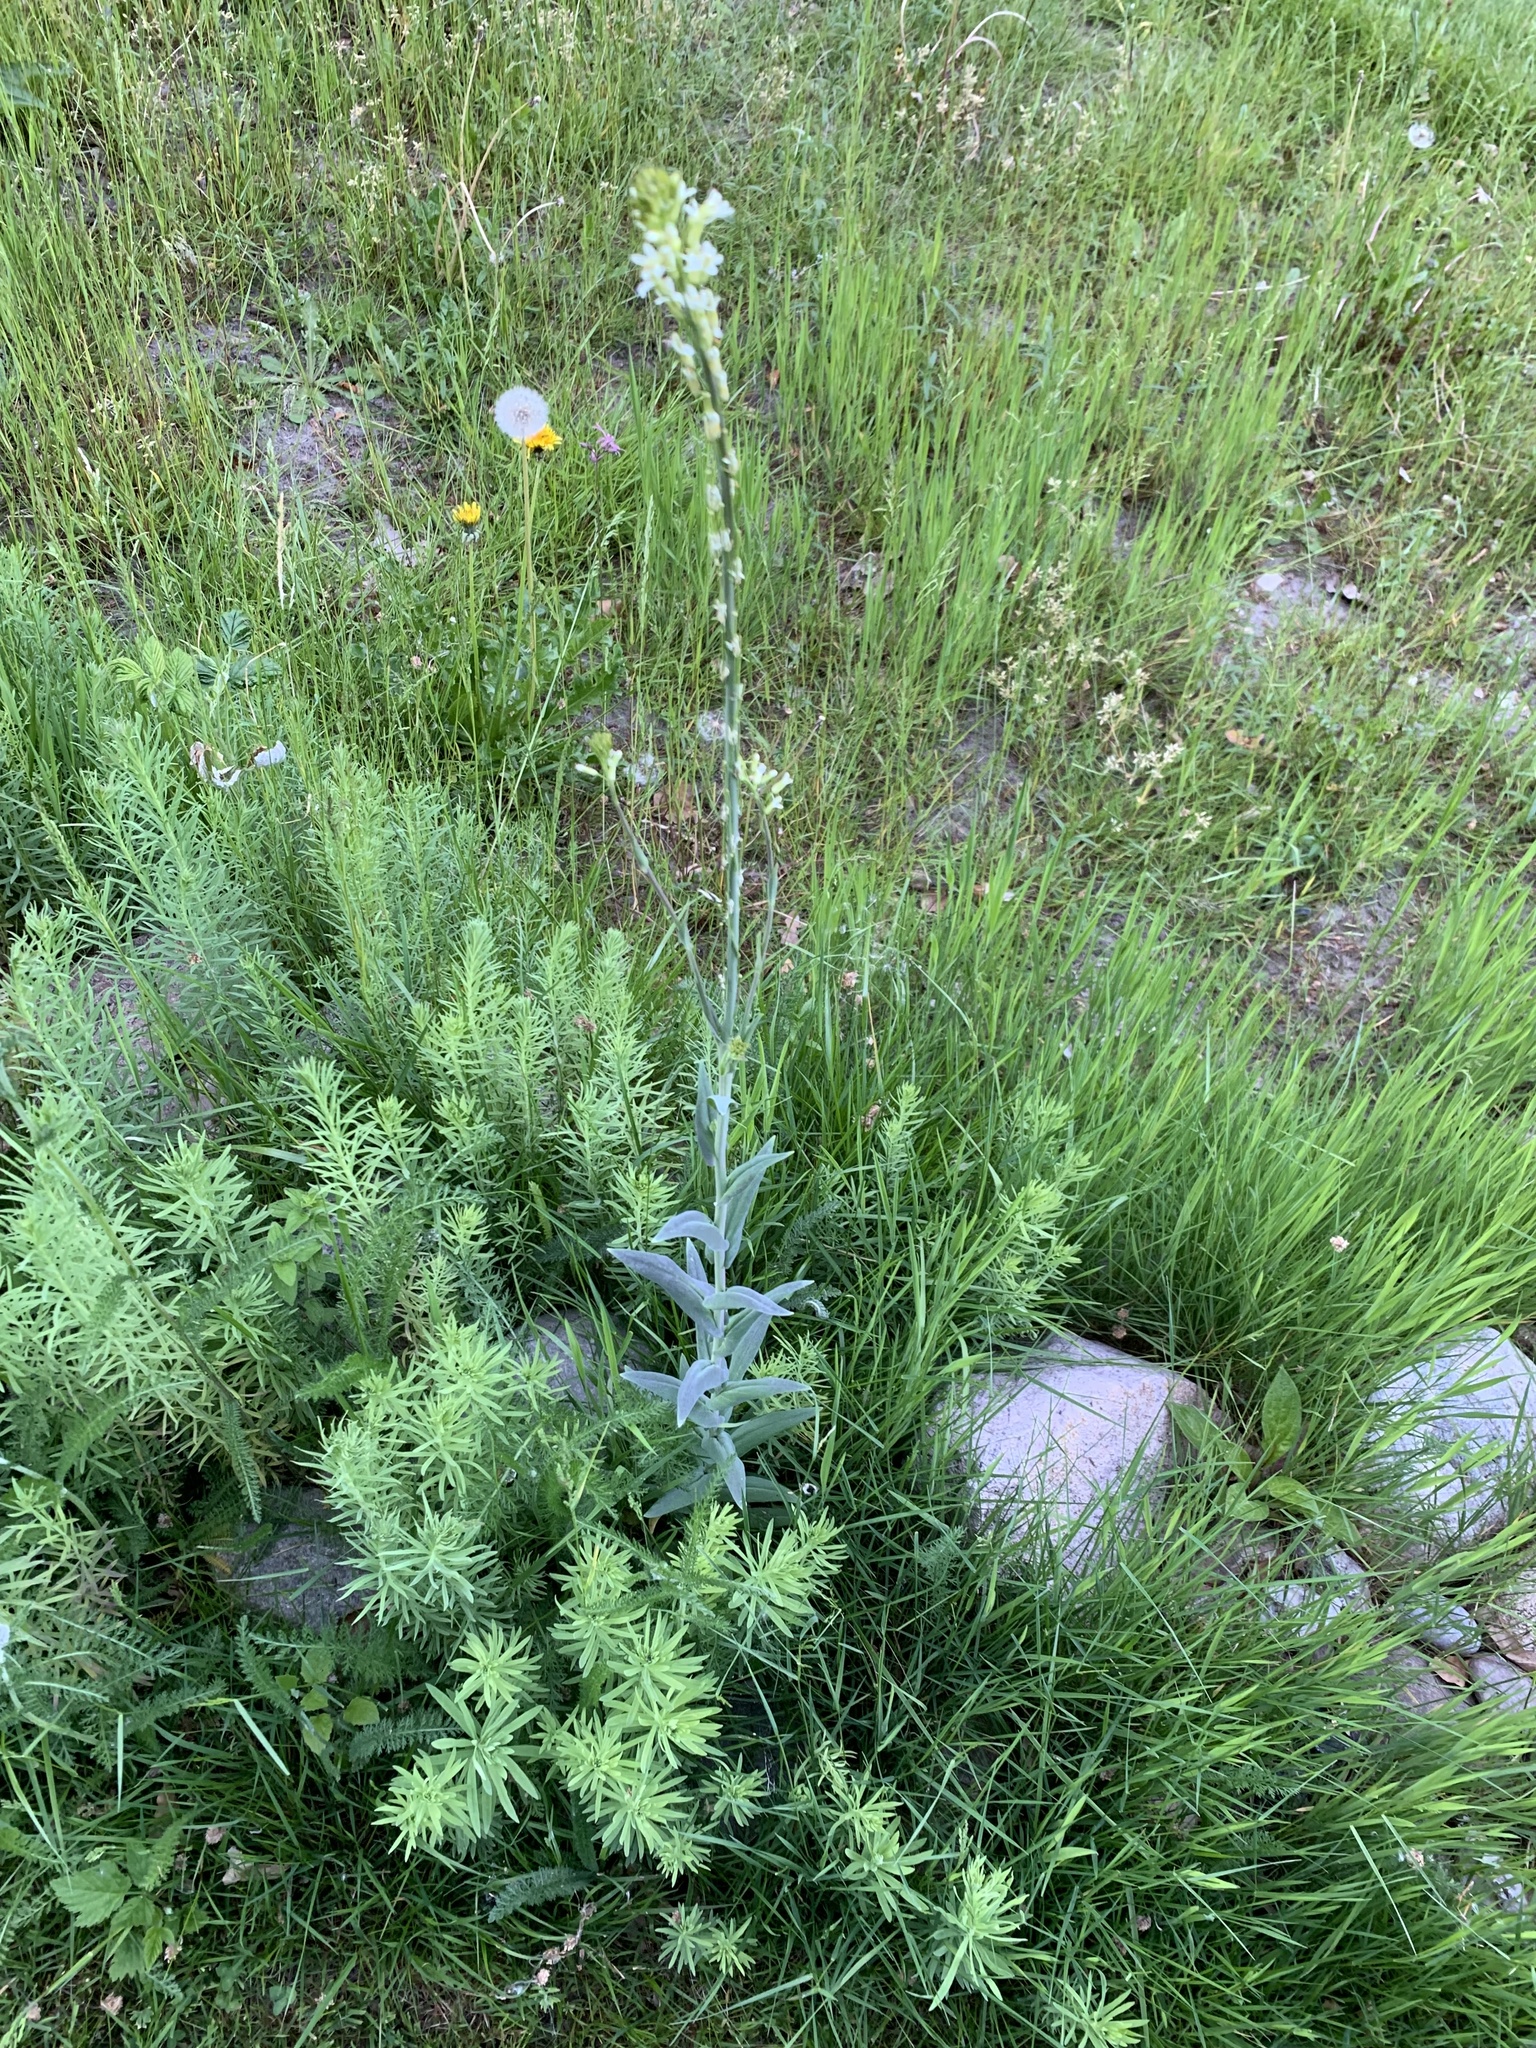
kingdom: Plantae
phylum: Tracheophyta
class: Magnoliopsida
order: Brassicales
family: Brassicaceae
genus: Turritis
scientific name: Turritis glabra
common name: Tower rockcress
